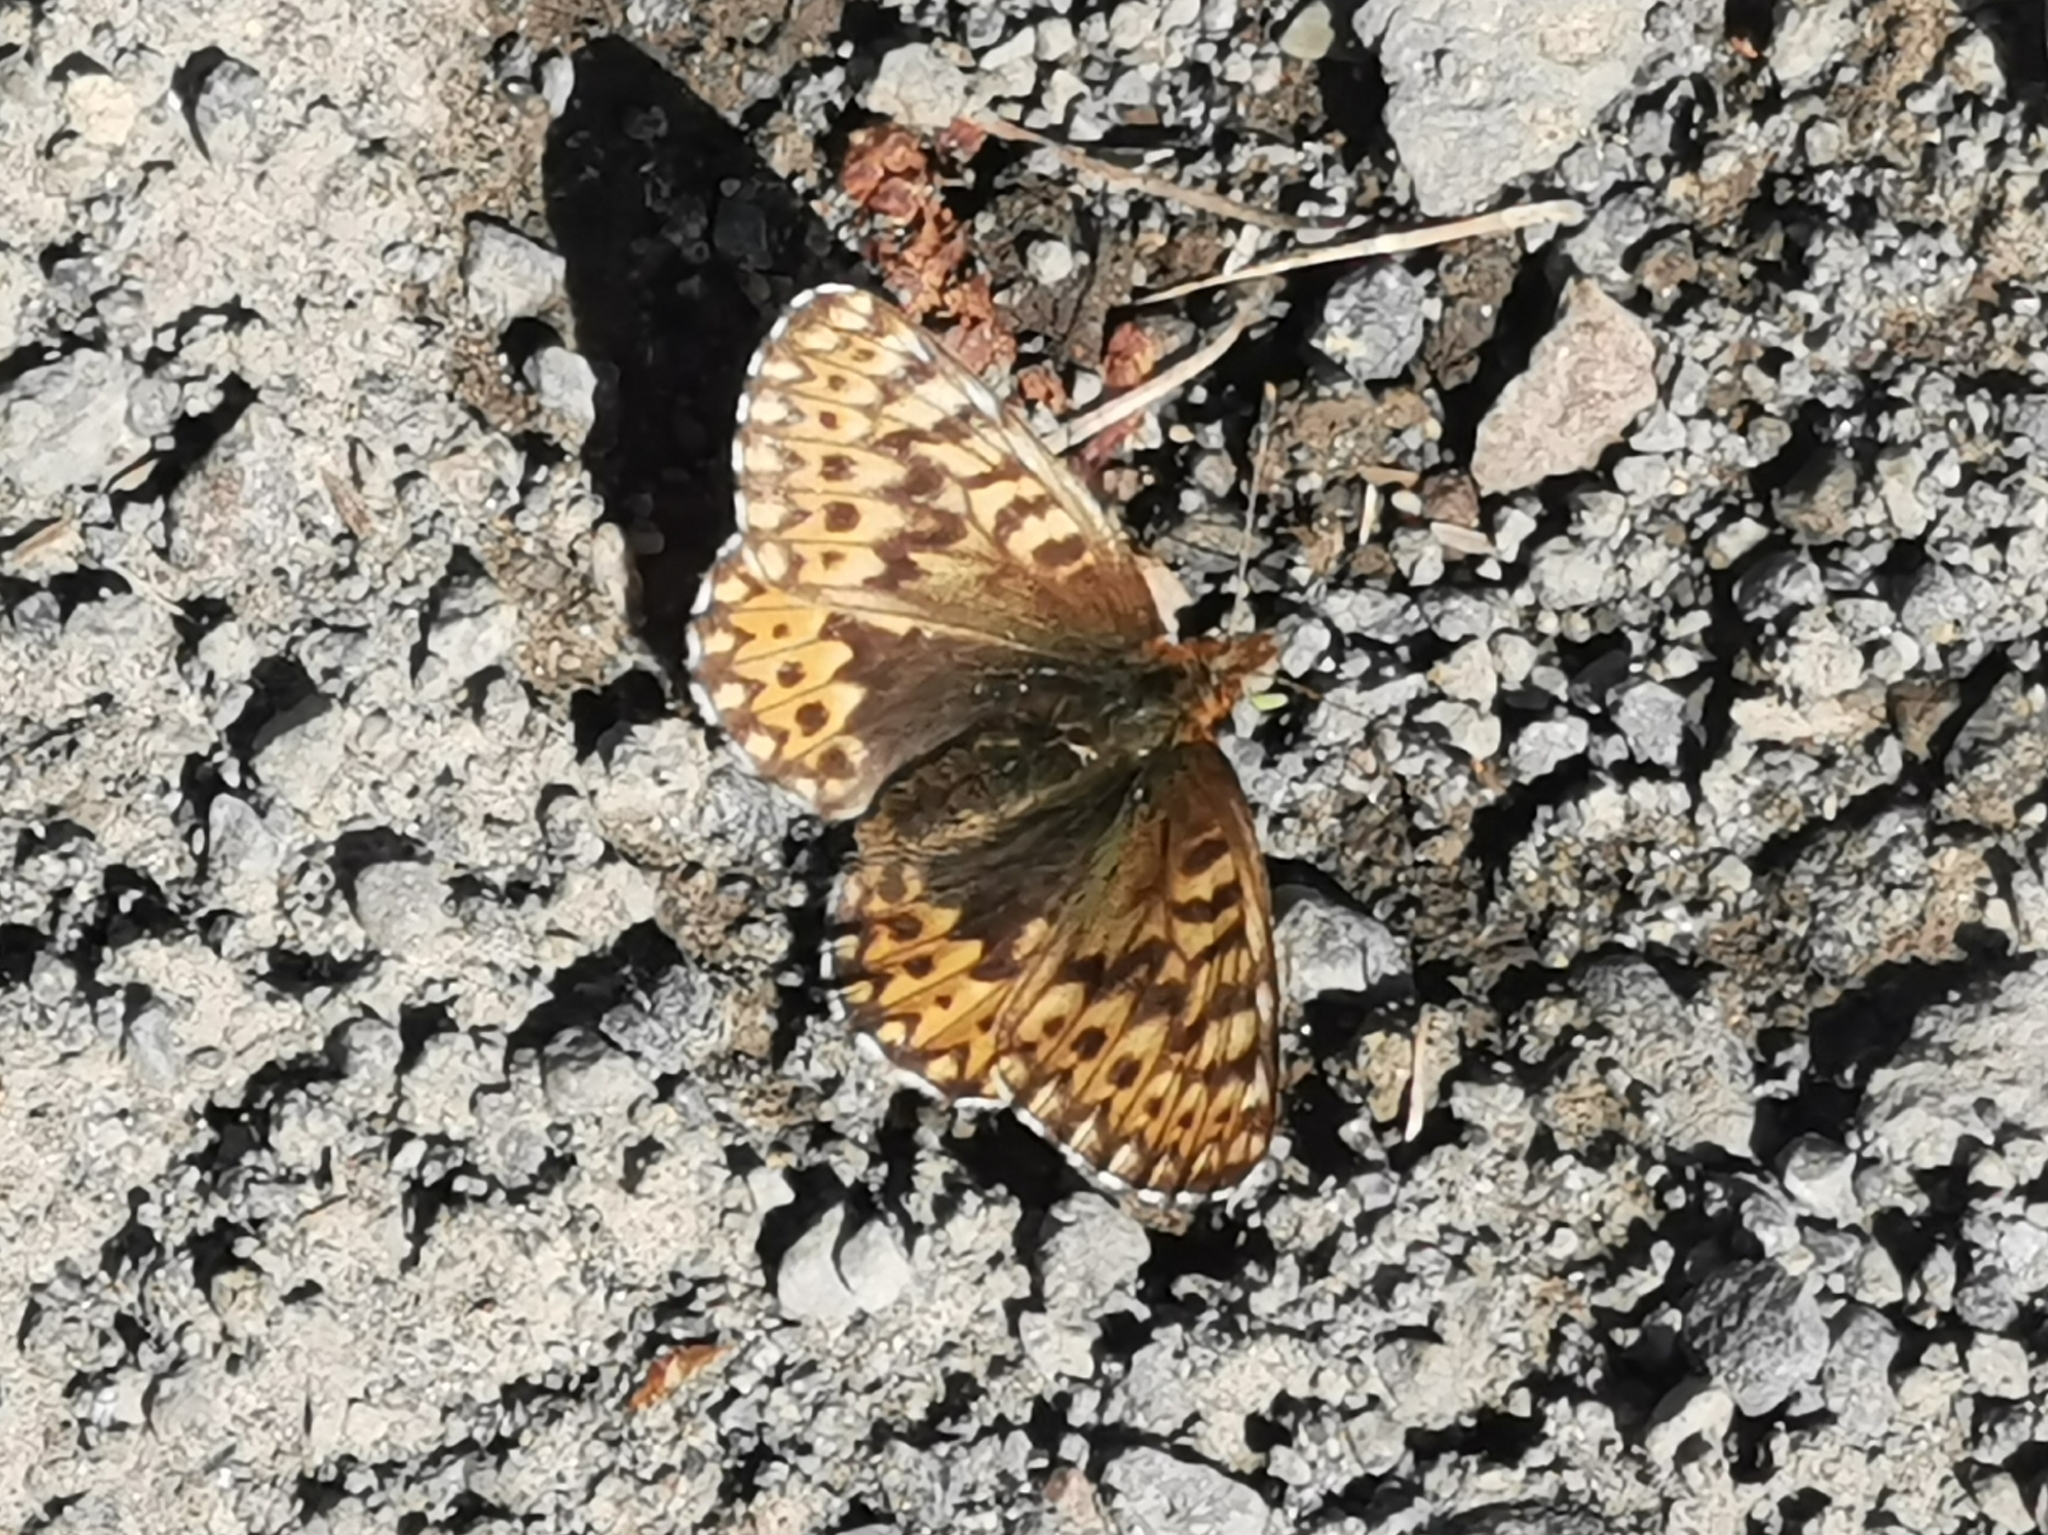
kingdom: Animalia
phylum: Arthropoda
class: Insecta
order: Lepidoptera
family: Nymphalidae
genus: Boloria
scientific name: Boloria freija
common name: Freija fritillary
